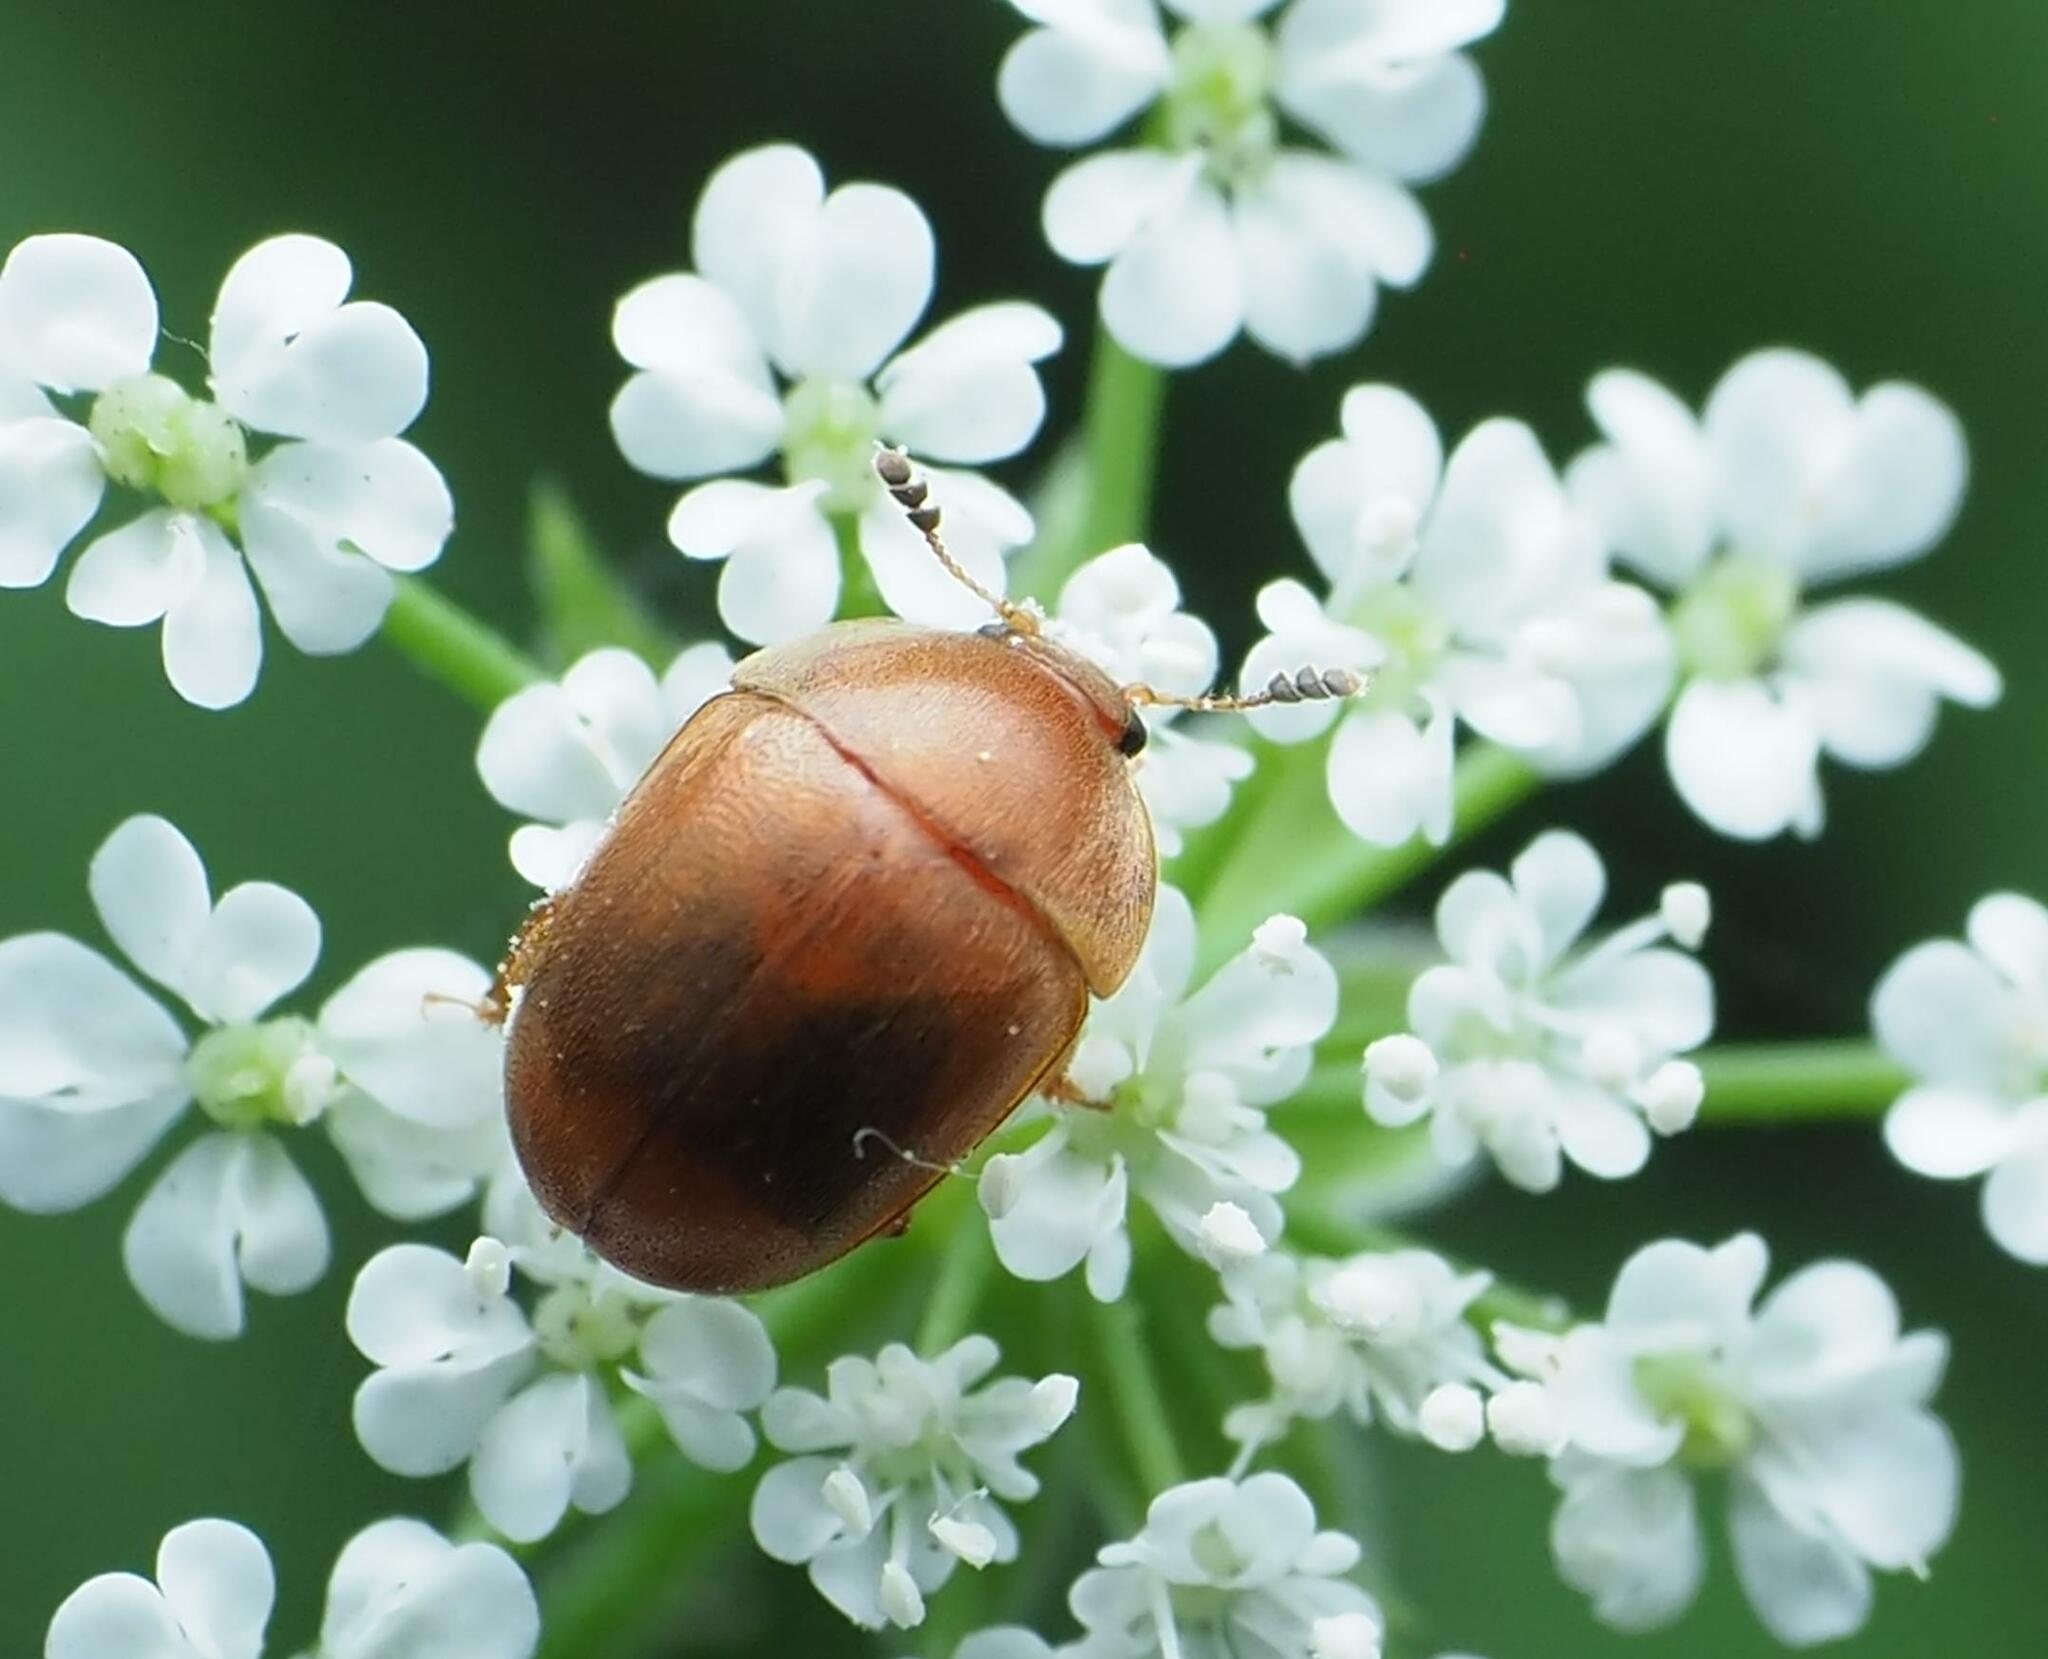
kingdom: Animalia
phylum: Arthropoda
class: Insecta
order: Coleoptera
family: Nitidulidae
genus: Cychramus
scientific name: Cychramus luteus
